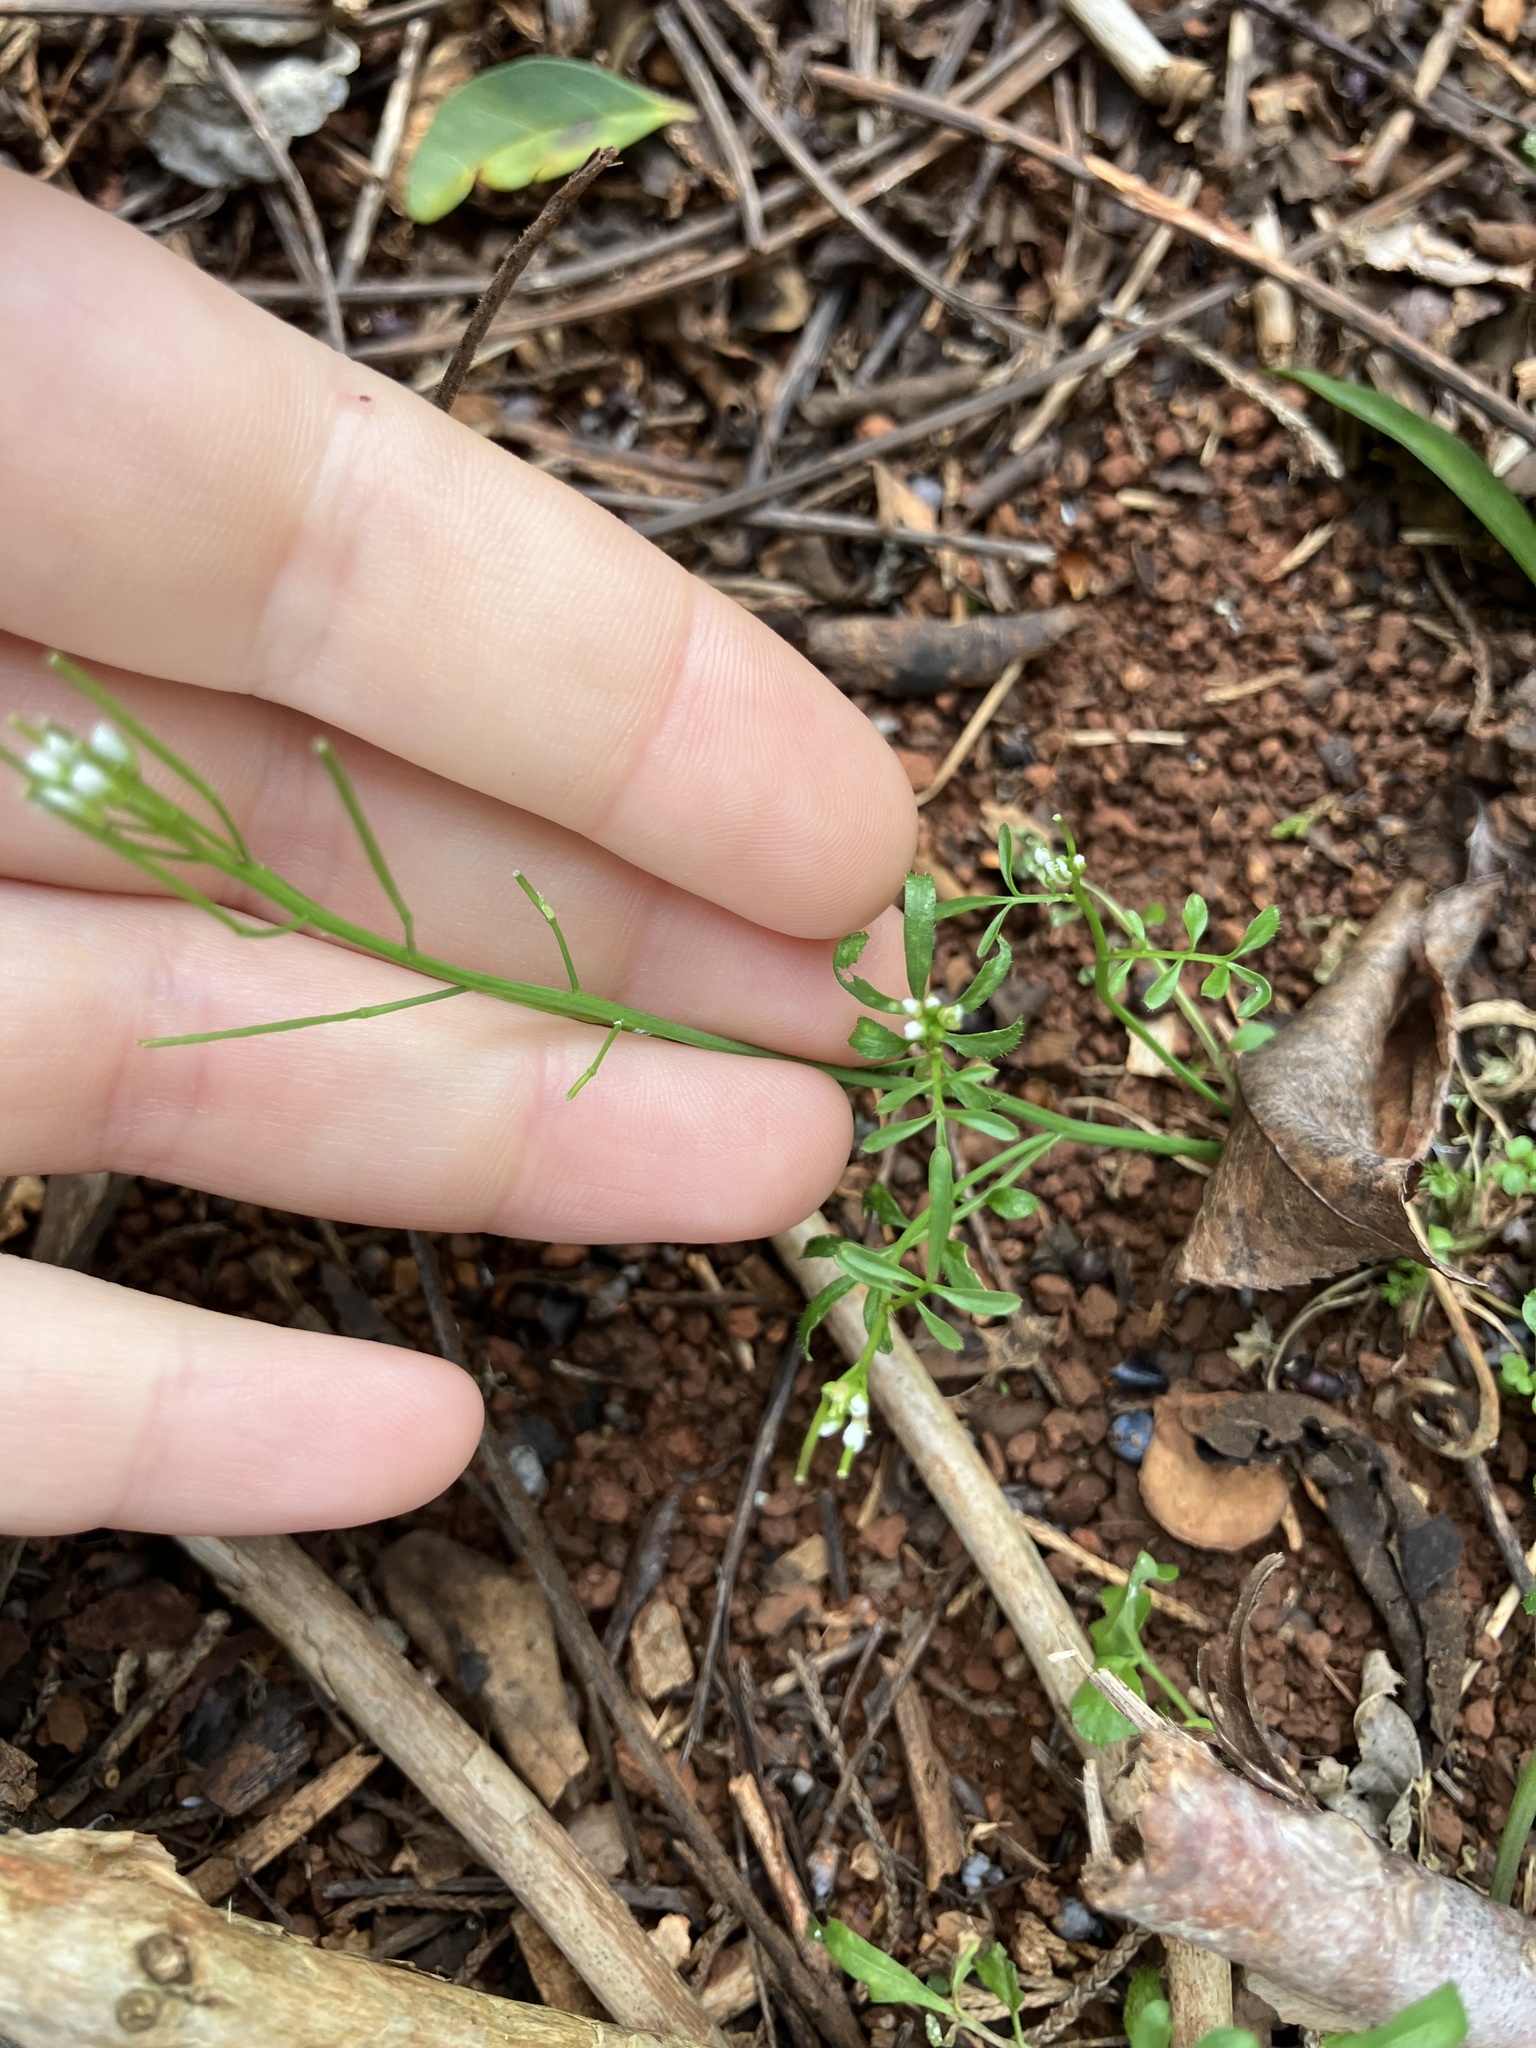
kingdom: Plantae
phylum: Tracheophyta
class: Magnoliopsida
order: Brassicales
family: Brassicaceae
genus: Cardamine
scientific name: Cardamine parviflora
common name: Sand bittercress
